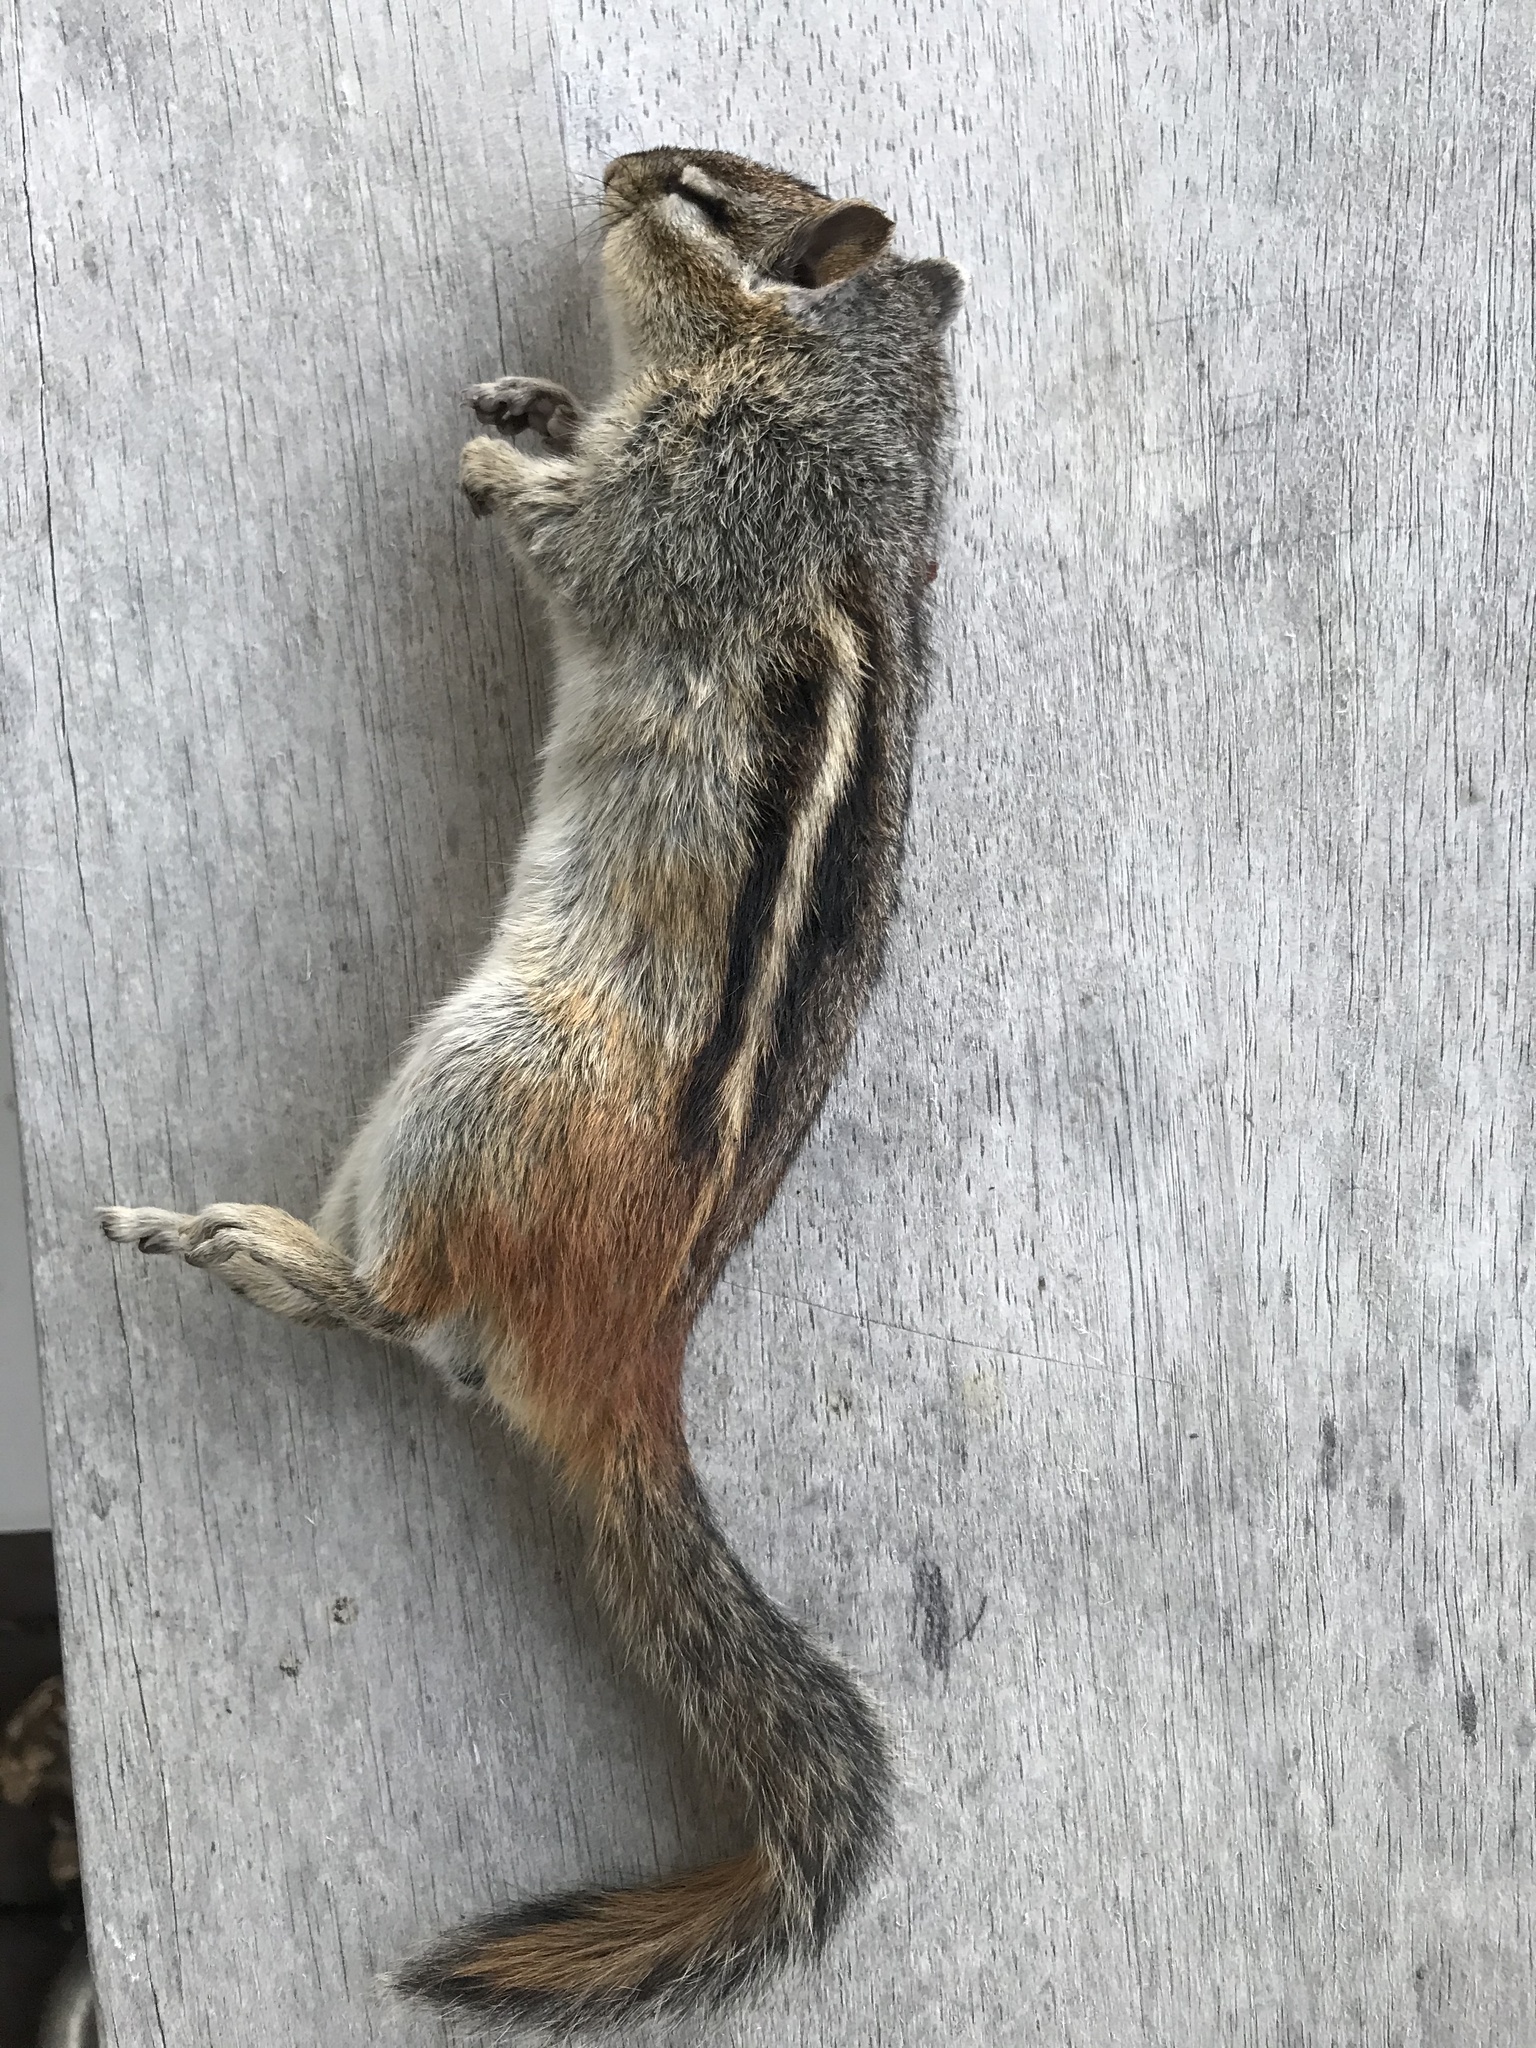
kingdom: Animalia
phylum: Chordata
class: Mammalia
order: Rodentia
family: Sciuridae
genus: Tamias
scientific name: Tamias striatus
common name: Eastern chipmunk
